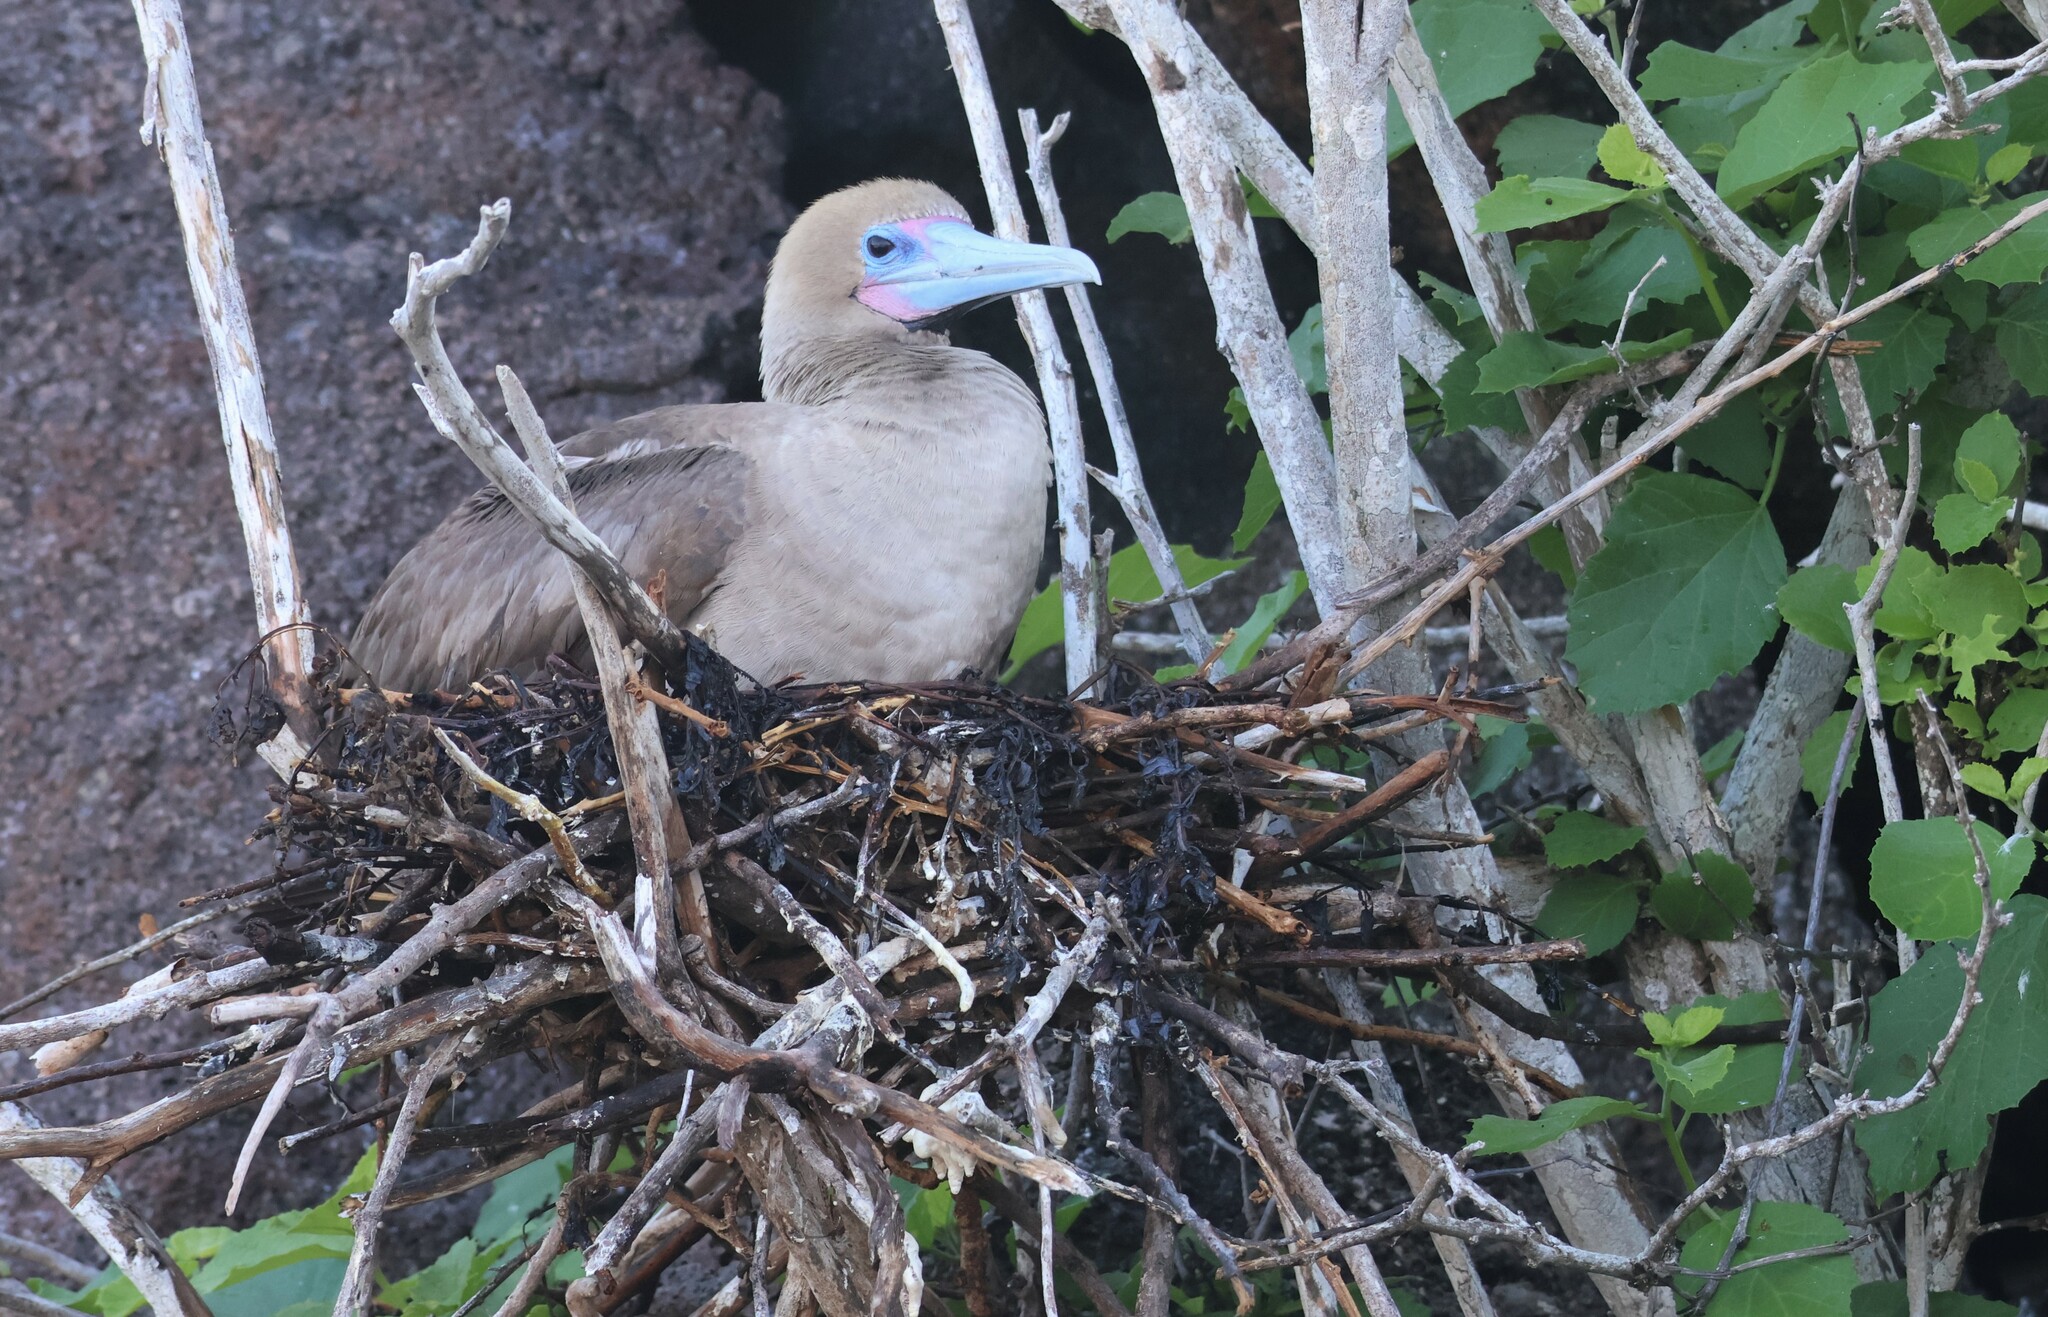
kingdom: Animalia
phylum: Chordata
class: Aves
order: Suliformes
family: Sulidae
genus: Sula
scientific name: Sula sula
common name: Red-footed booby
